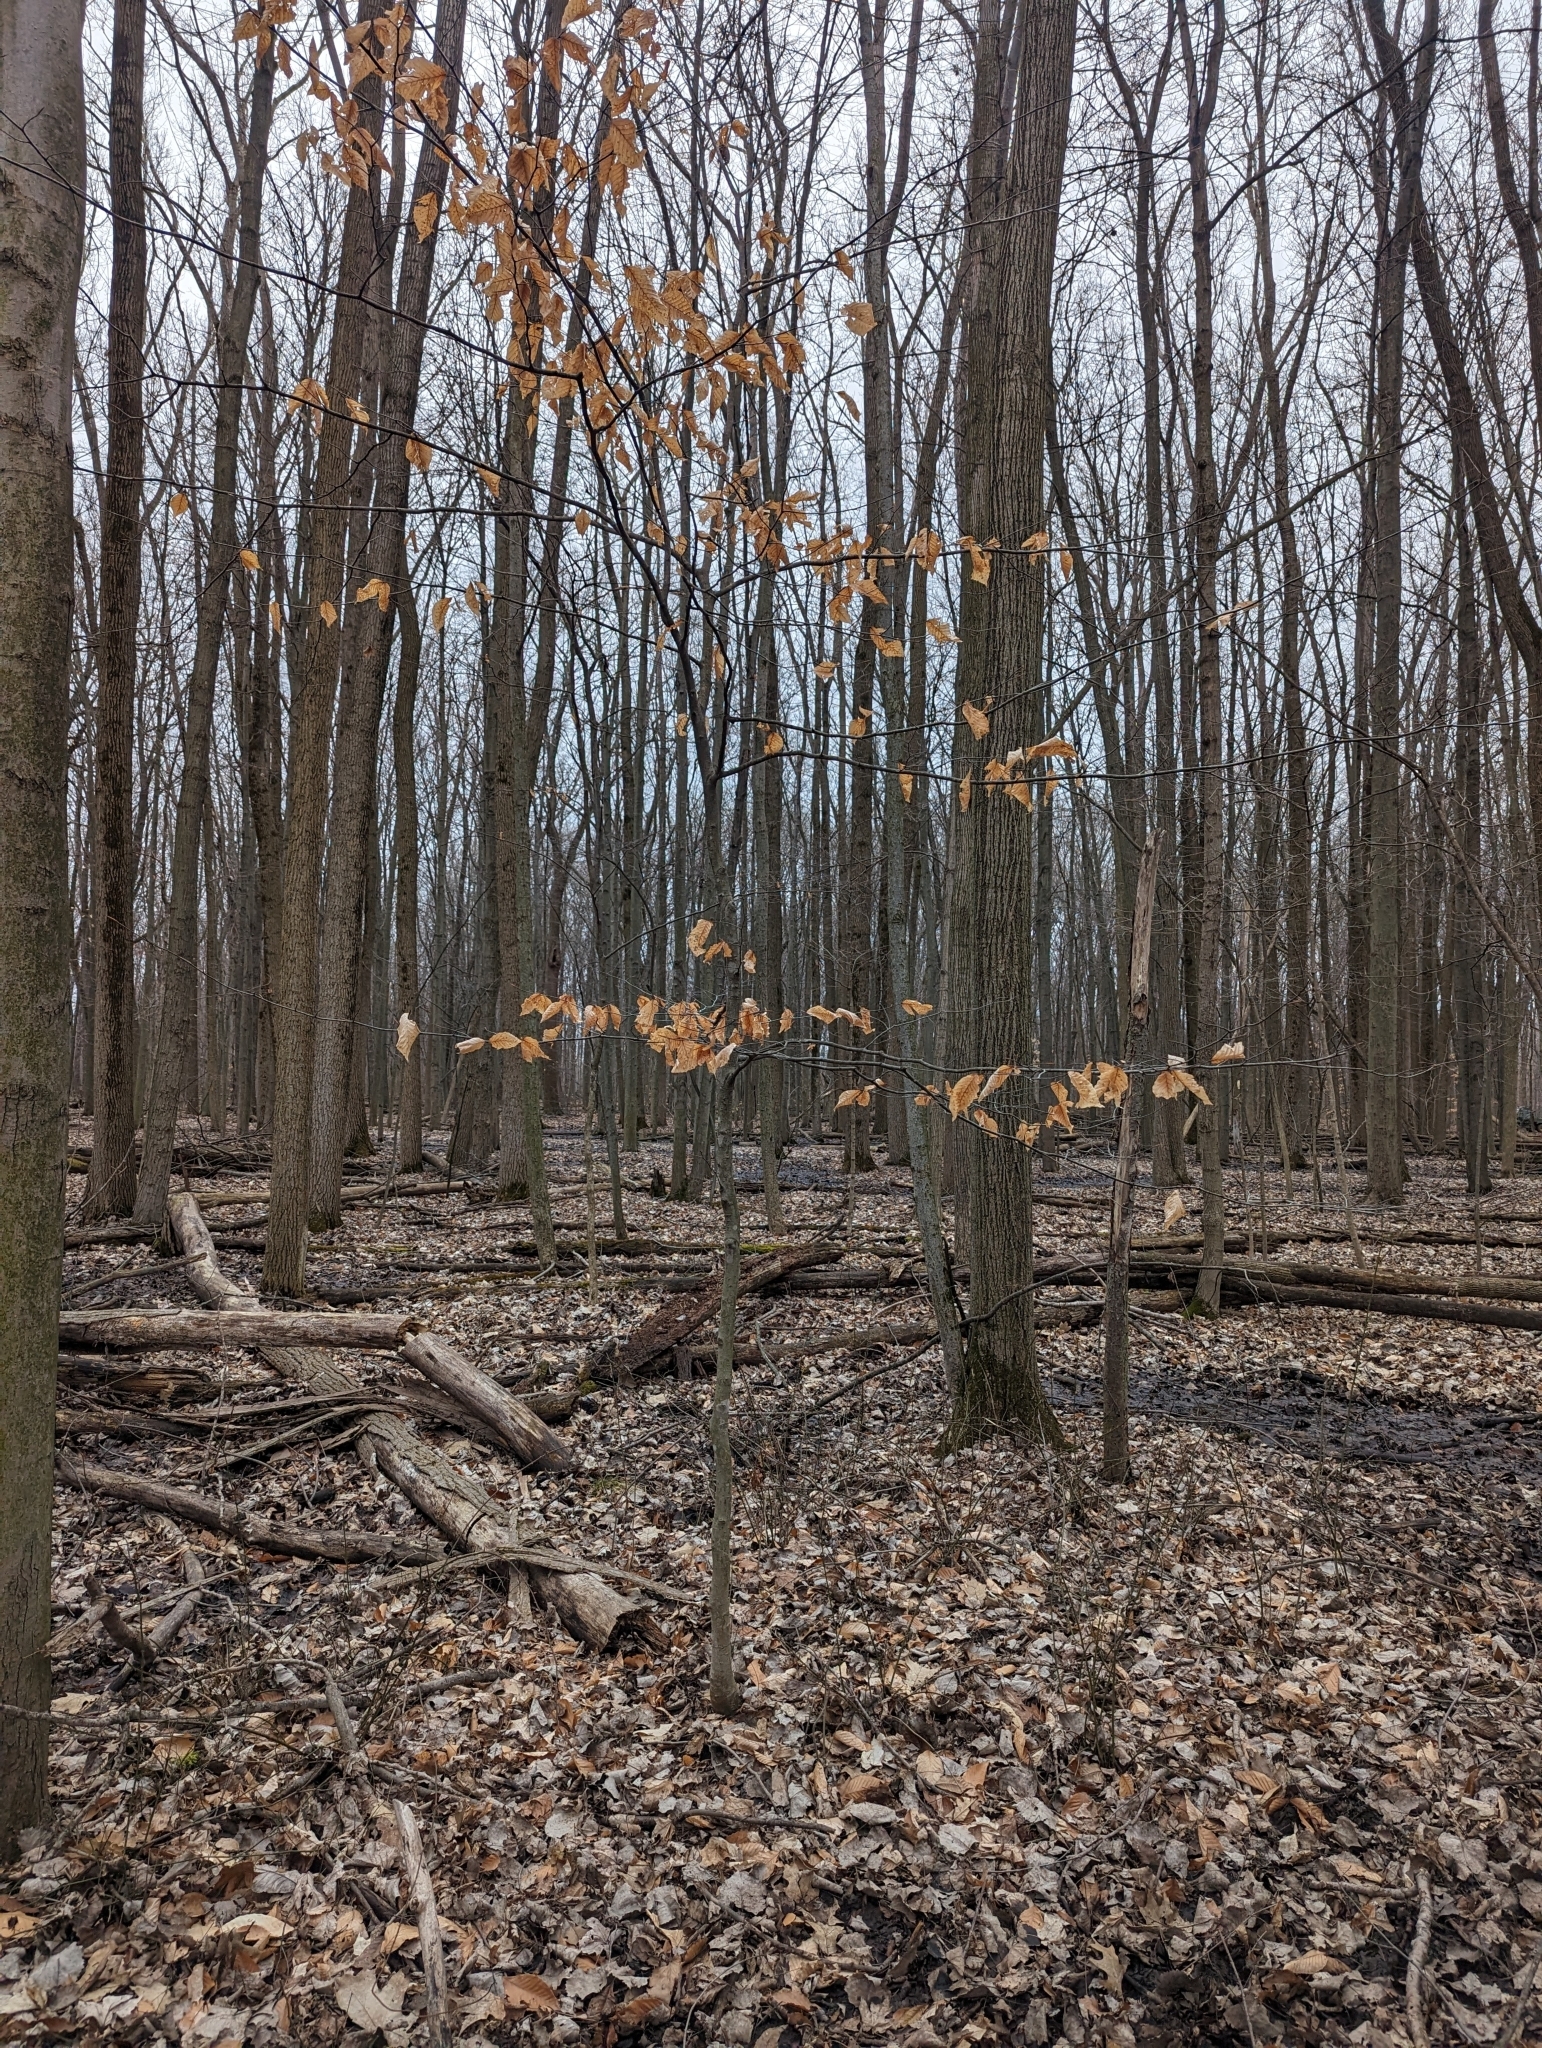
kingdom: Plantae
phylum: Tracheophyta
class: Magnoliopsida
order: Fagales
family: Fagaceae
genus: Fagus
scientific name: Fagus grandifolia
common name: American beech
